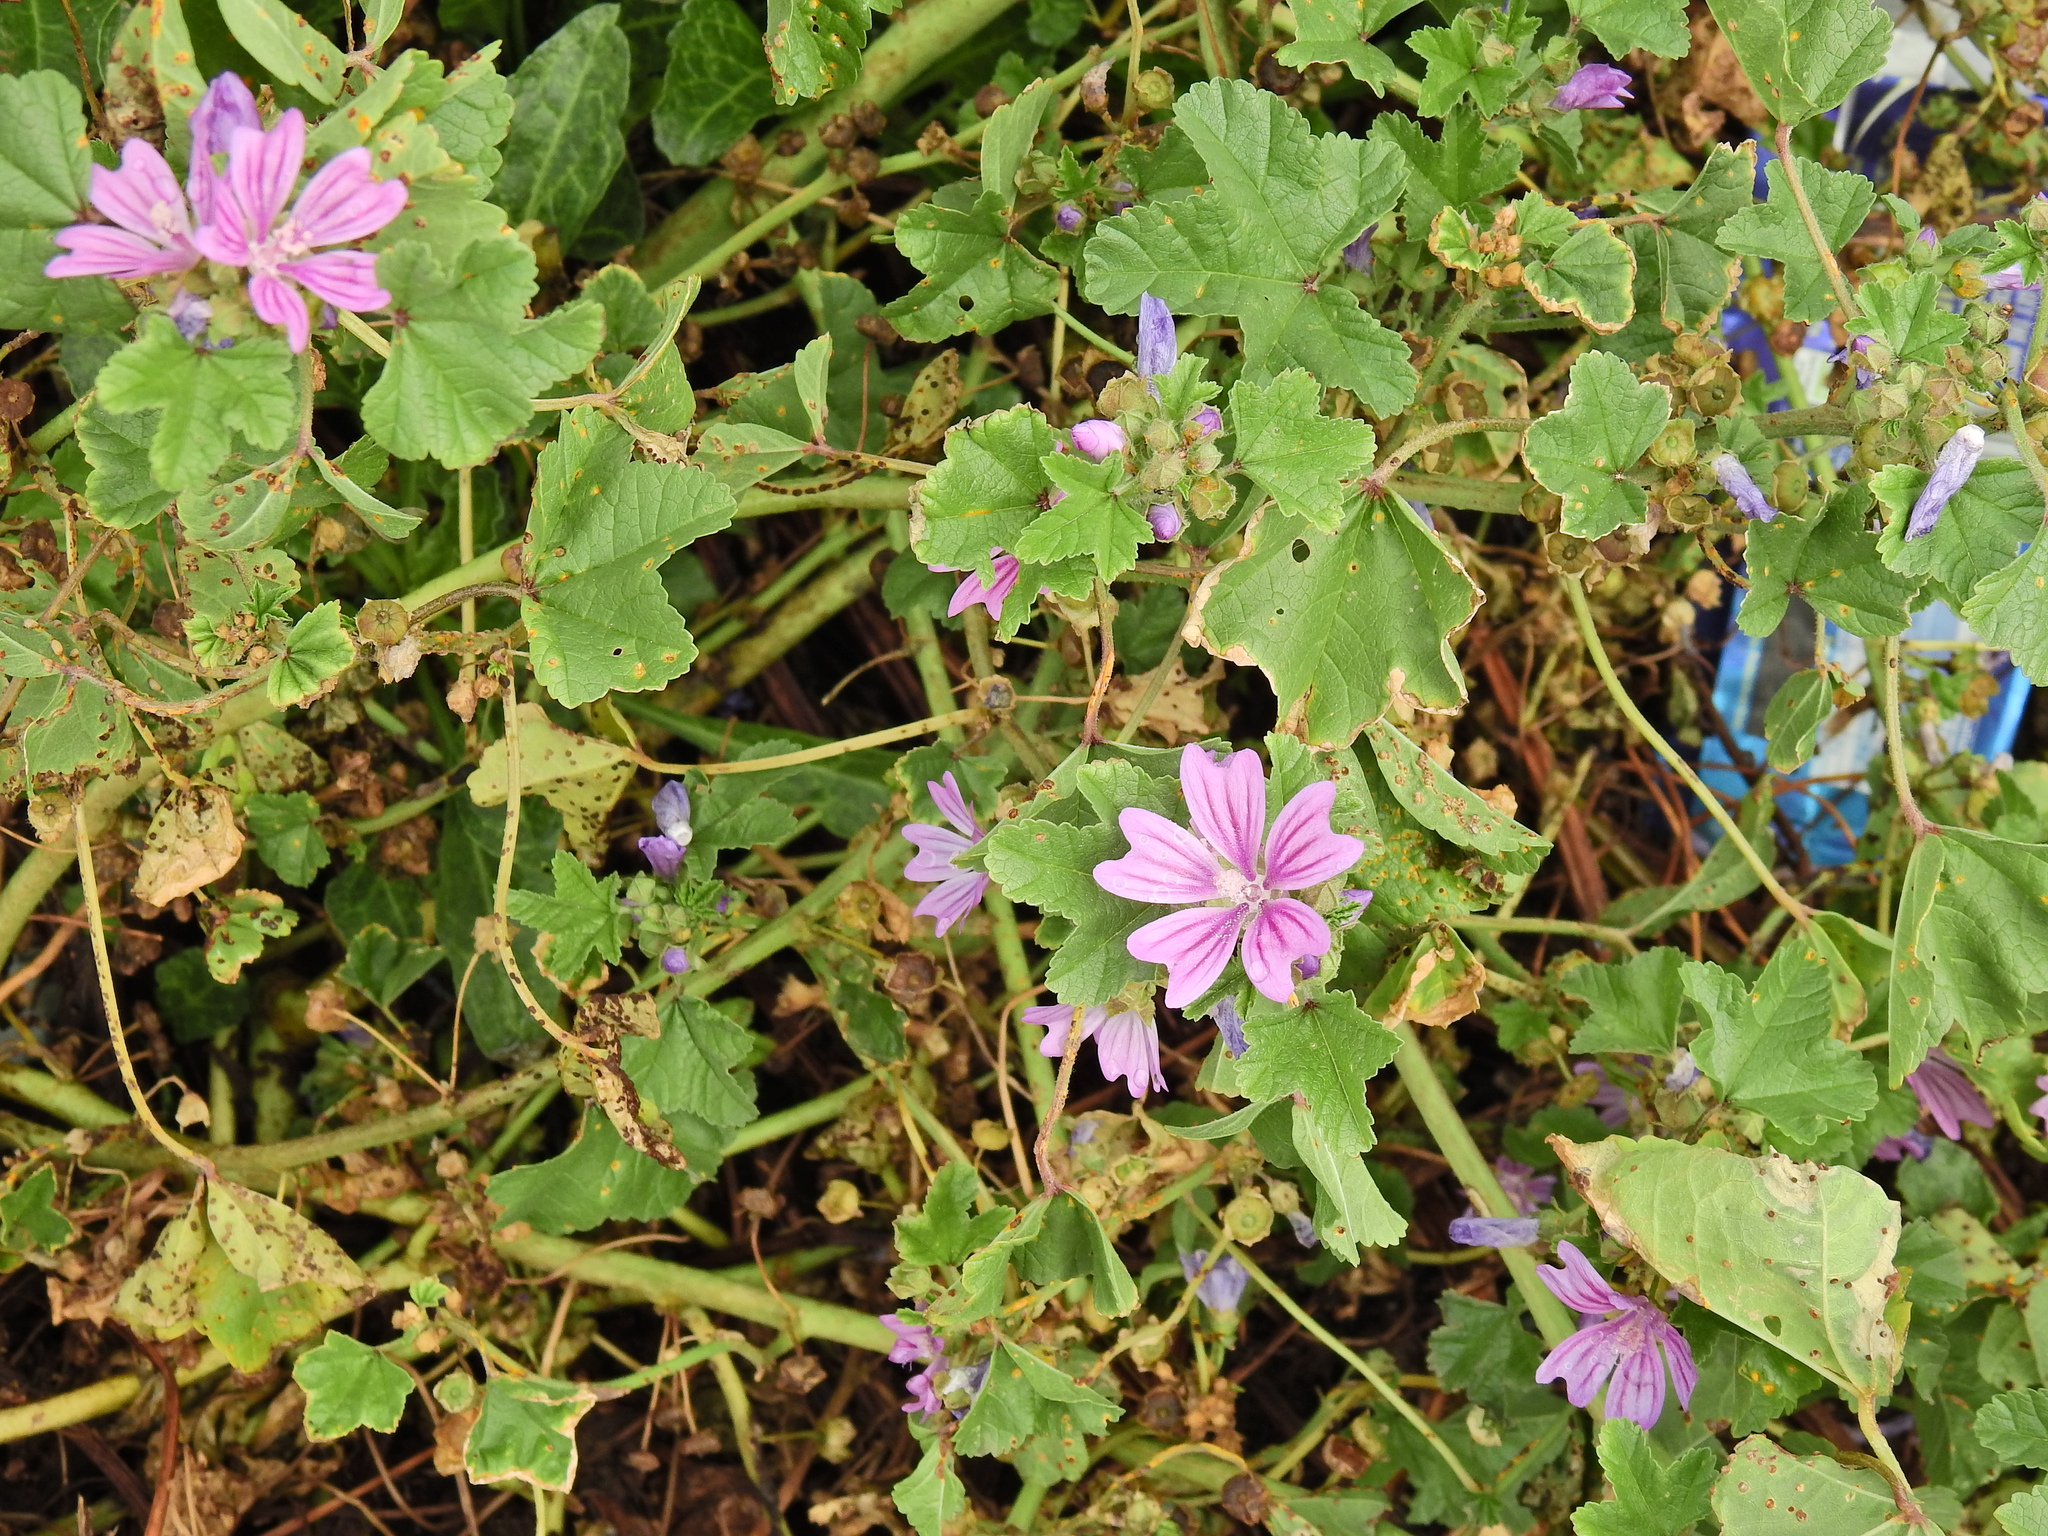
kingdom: Plantae
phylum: Tracheophyta
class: Magnoliopsida
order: Malvales
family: Malvaceae
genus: Malva
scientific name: Malva sylvestris
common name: Common mallow
